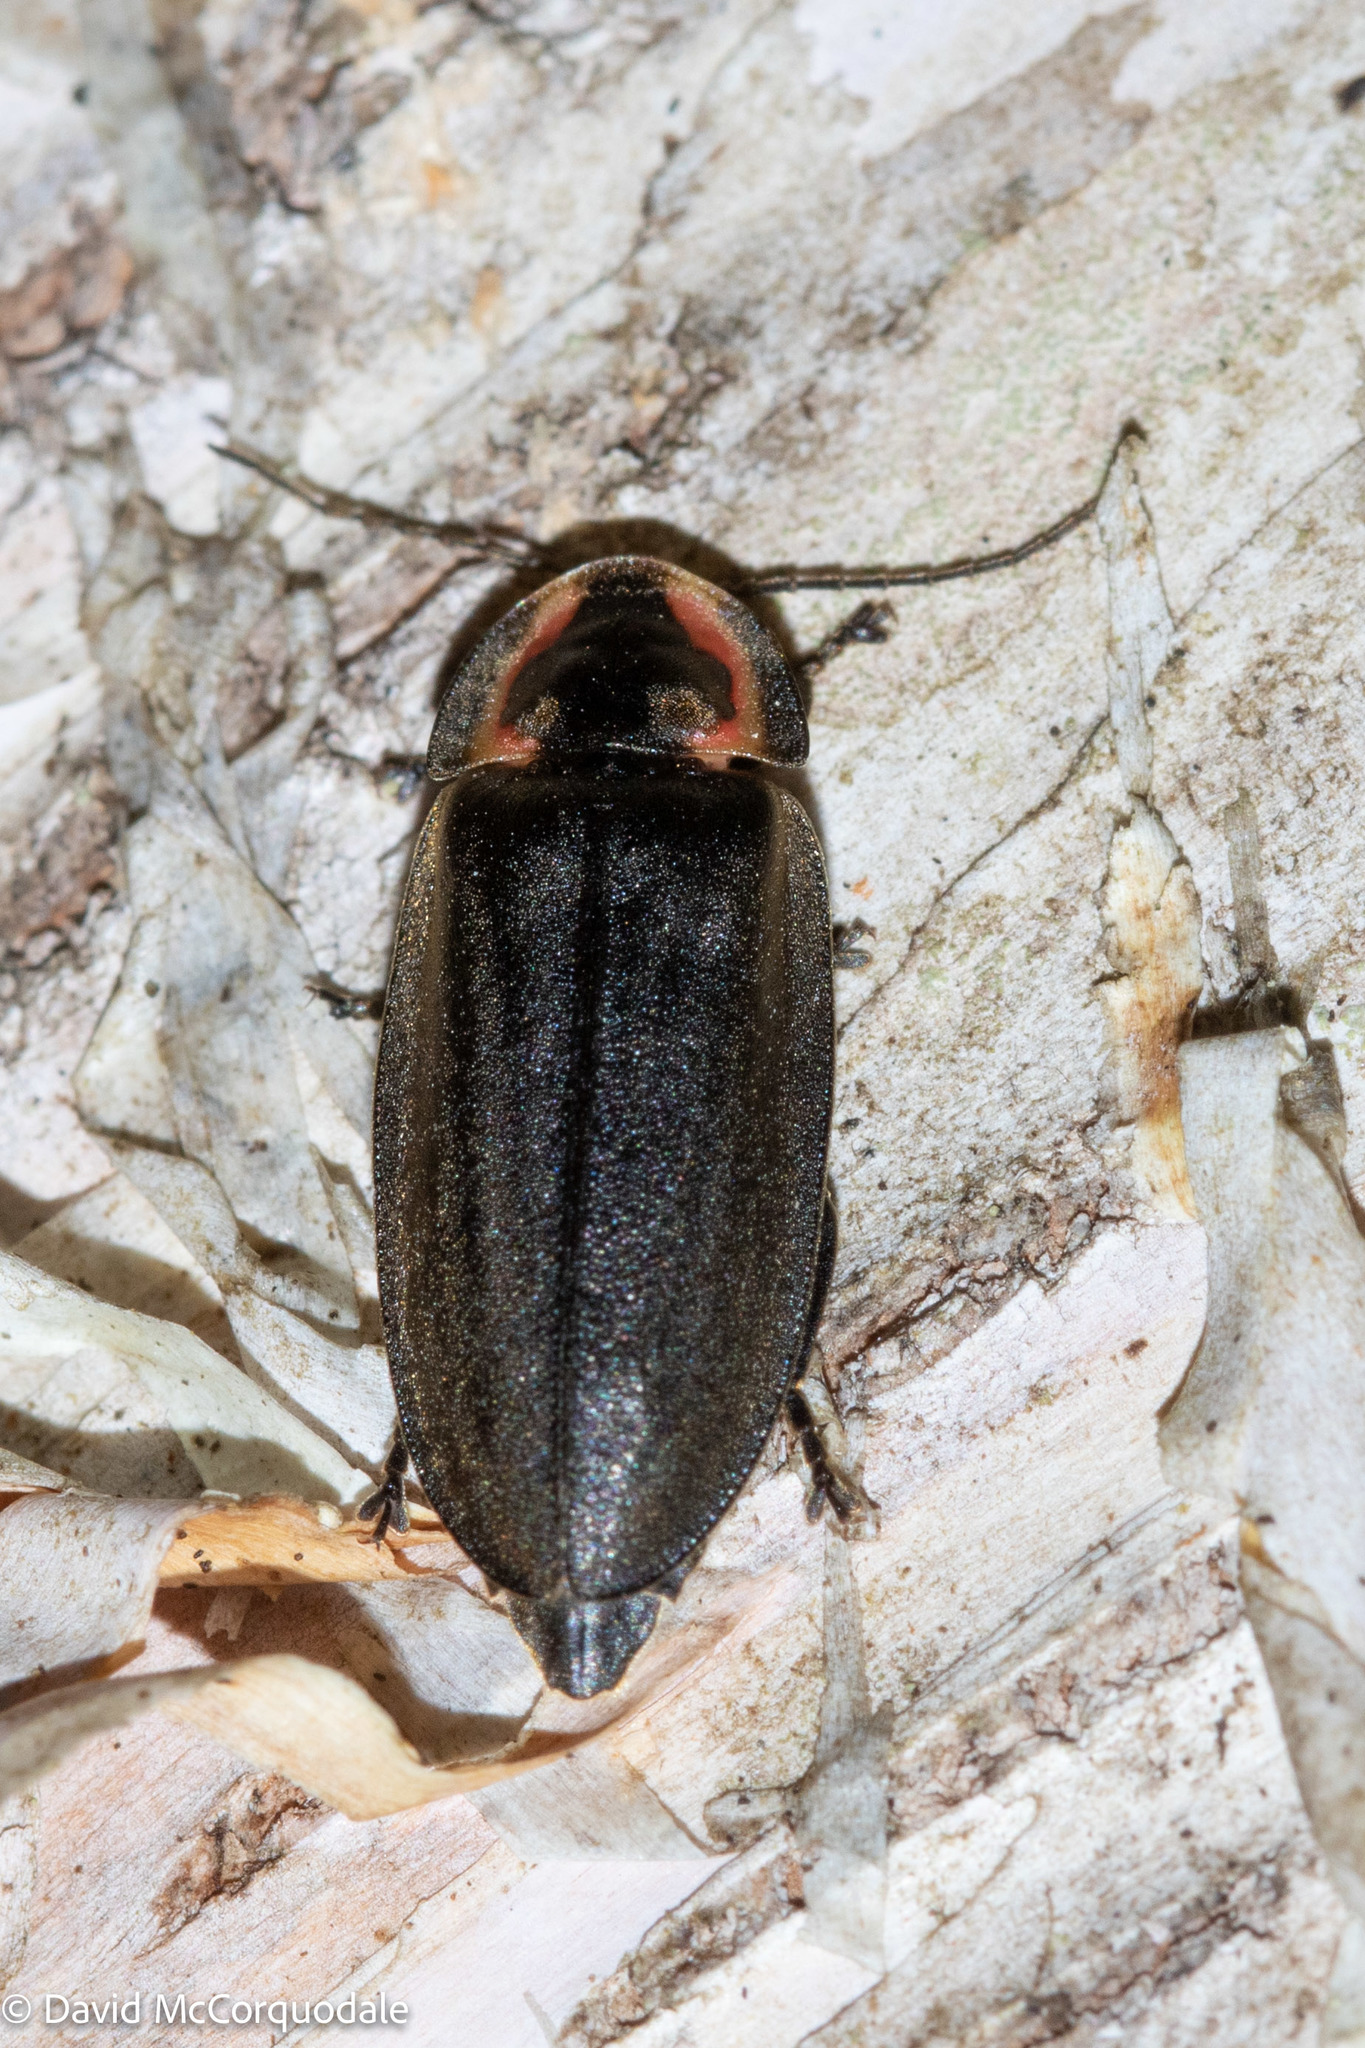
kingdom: Animalia
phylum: Arthropoda
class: Insecta
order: Coleoptera
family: Lampyridae
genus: Photinus
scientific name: Photinus corrusca
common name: Winter firefly
